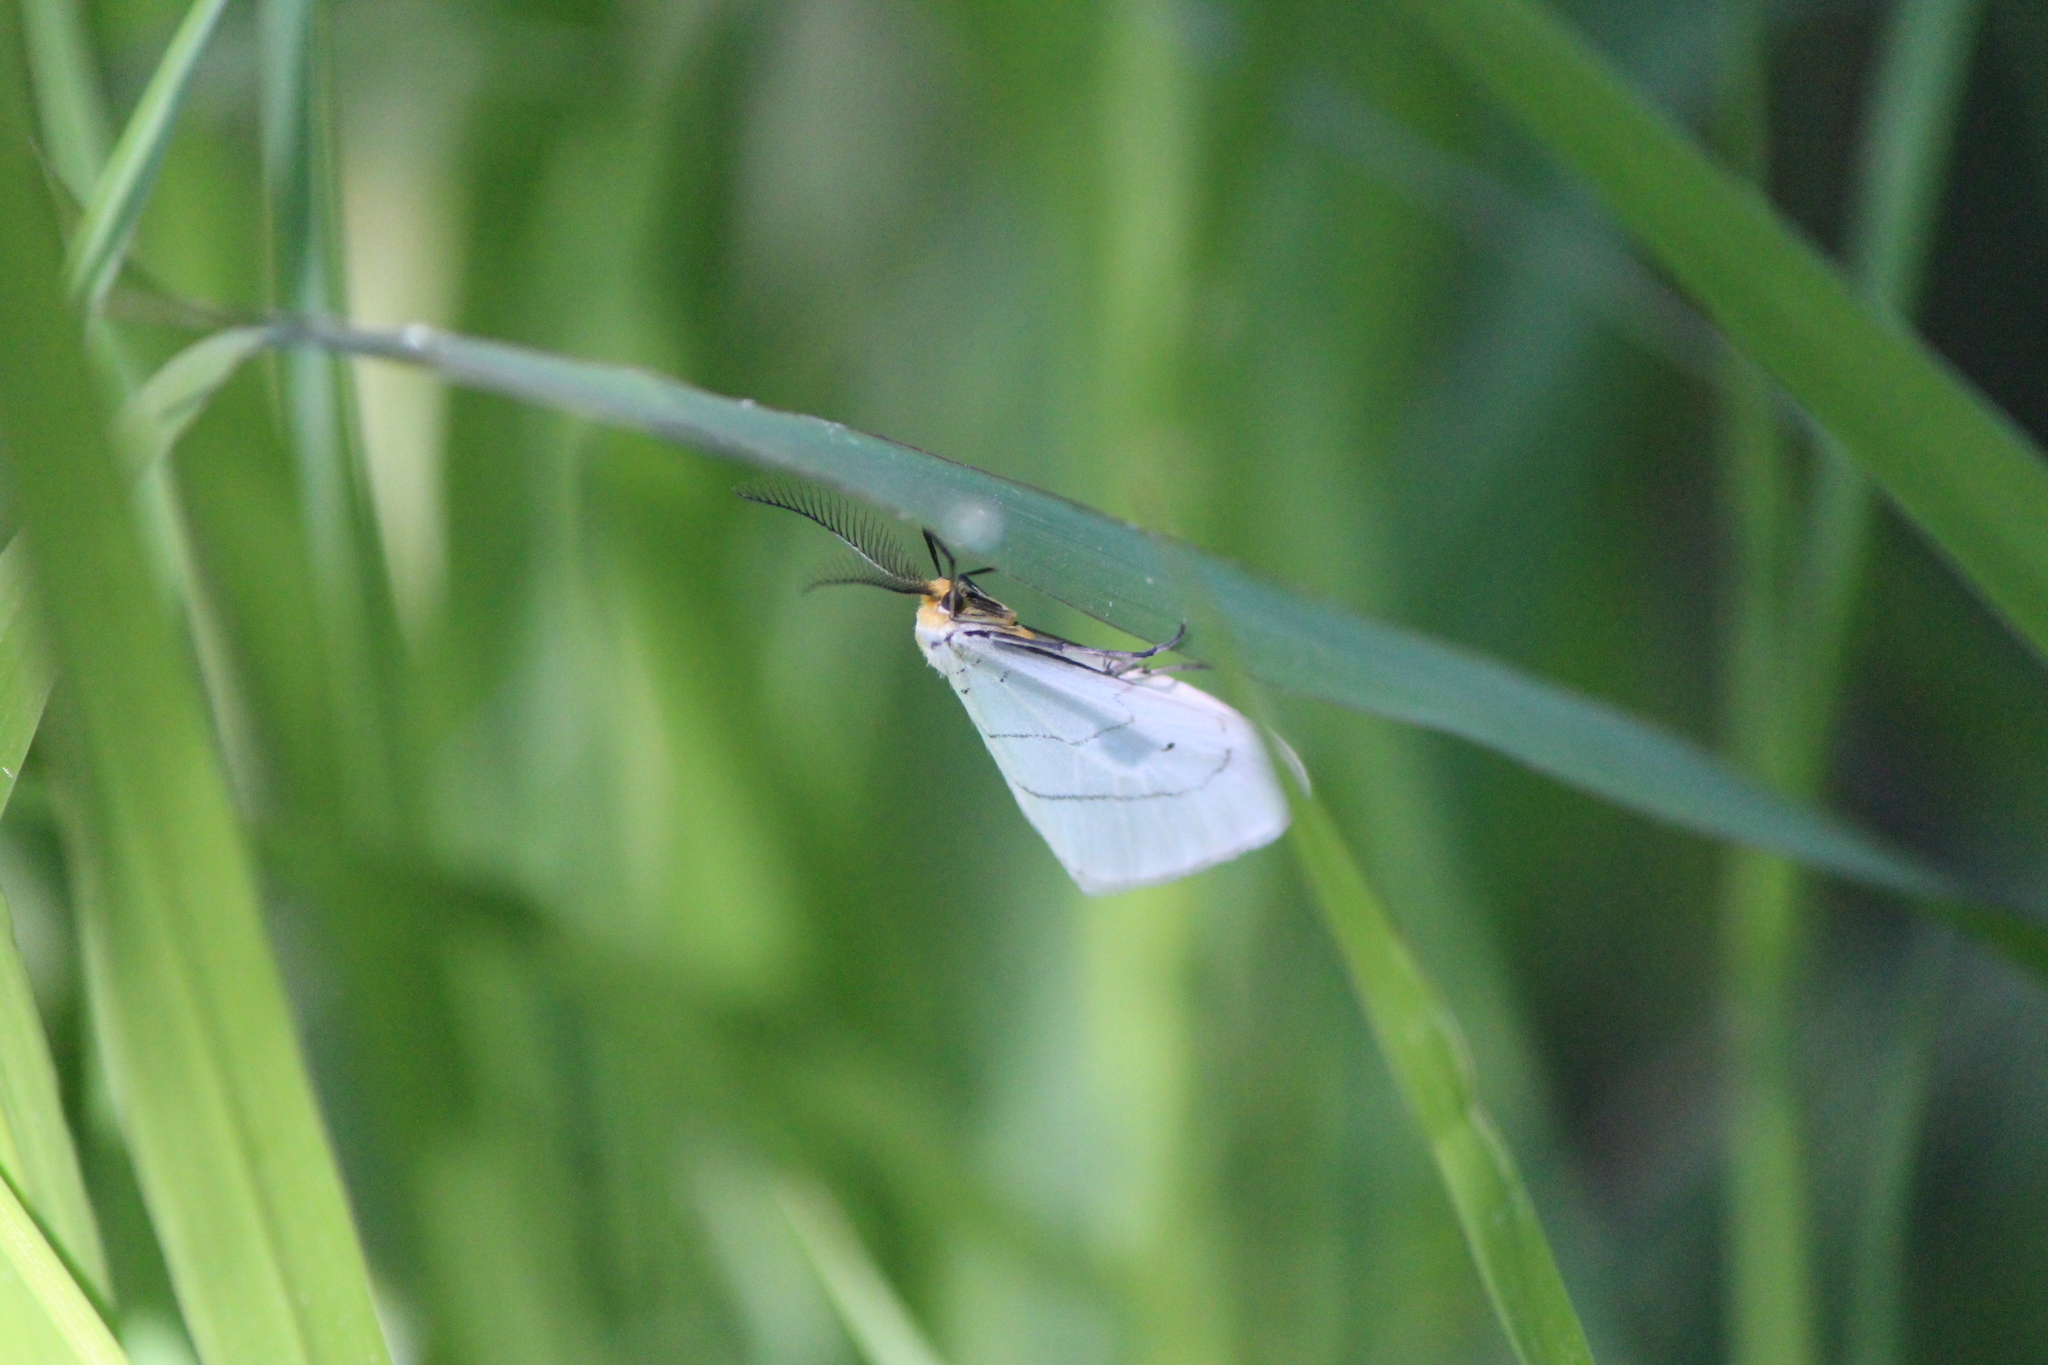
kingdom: Animalia
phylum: Arthropoda
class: Insecta
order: Lepidoptera
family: Doidae
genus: Leuculodes
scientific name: Leuculodes lacteolaria
